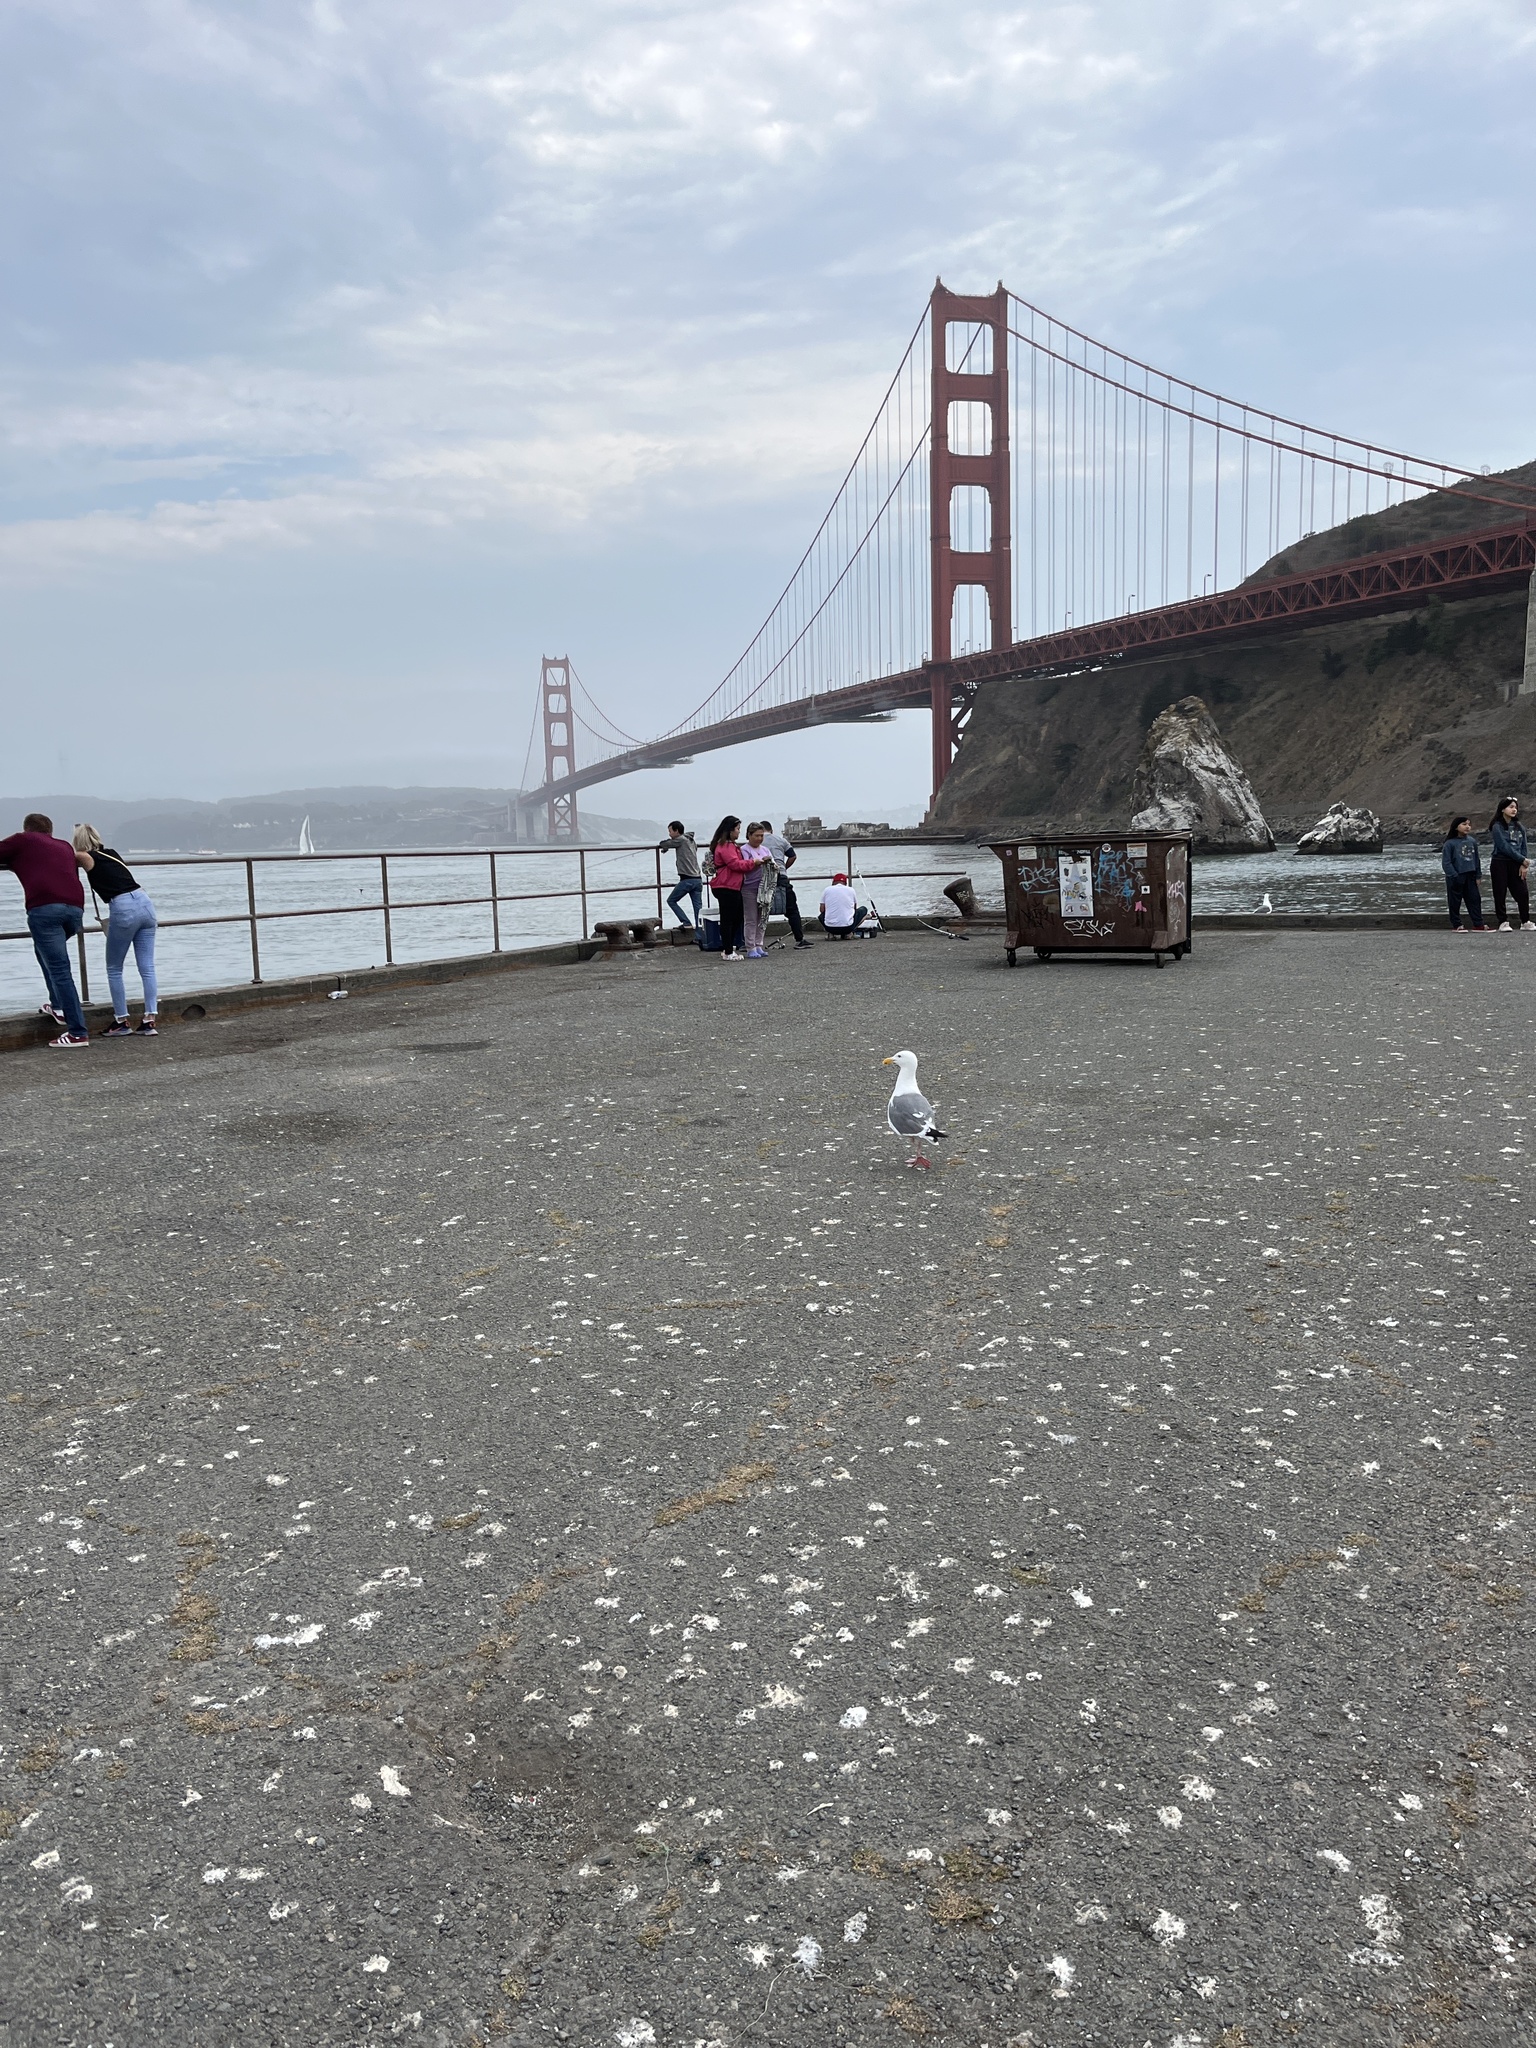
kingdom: Animalia
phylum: Chordata
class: Aves
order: Charadriiformes
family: Laridae
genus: Larus
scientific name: Larus occidentalis
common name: Western gull
